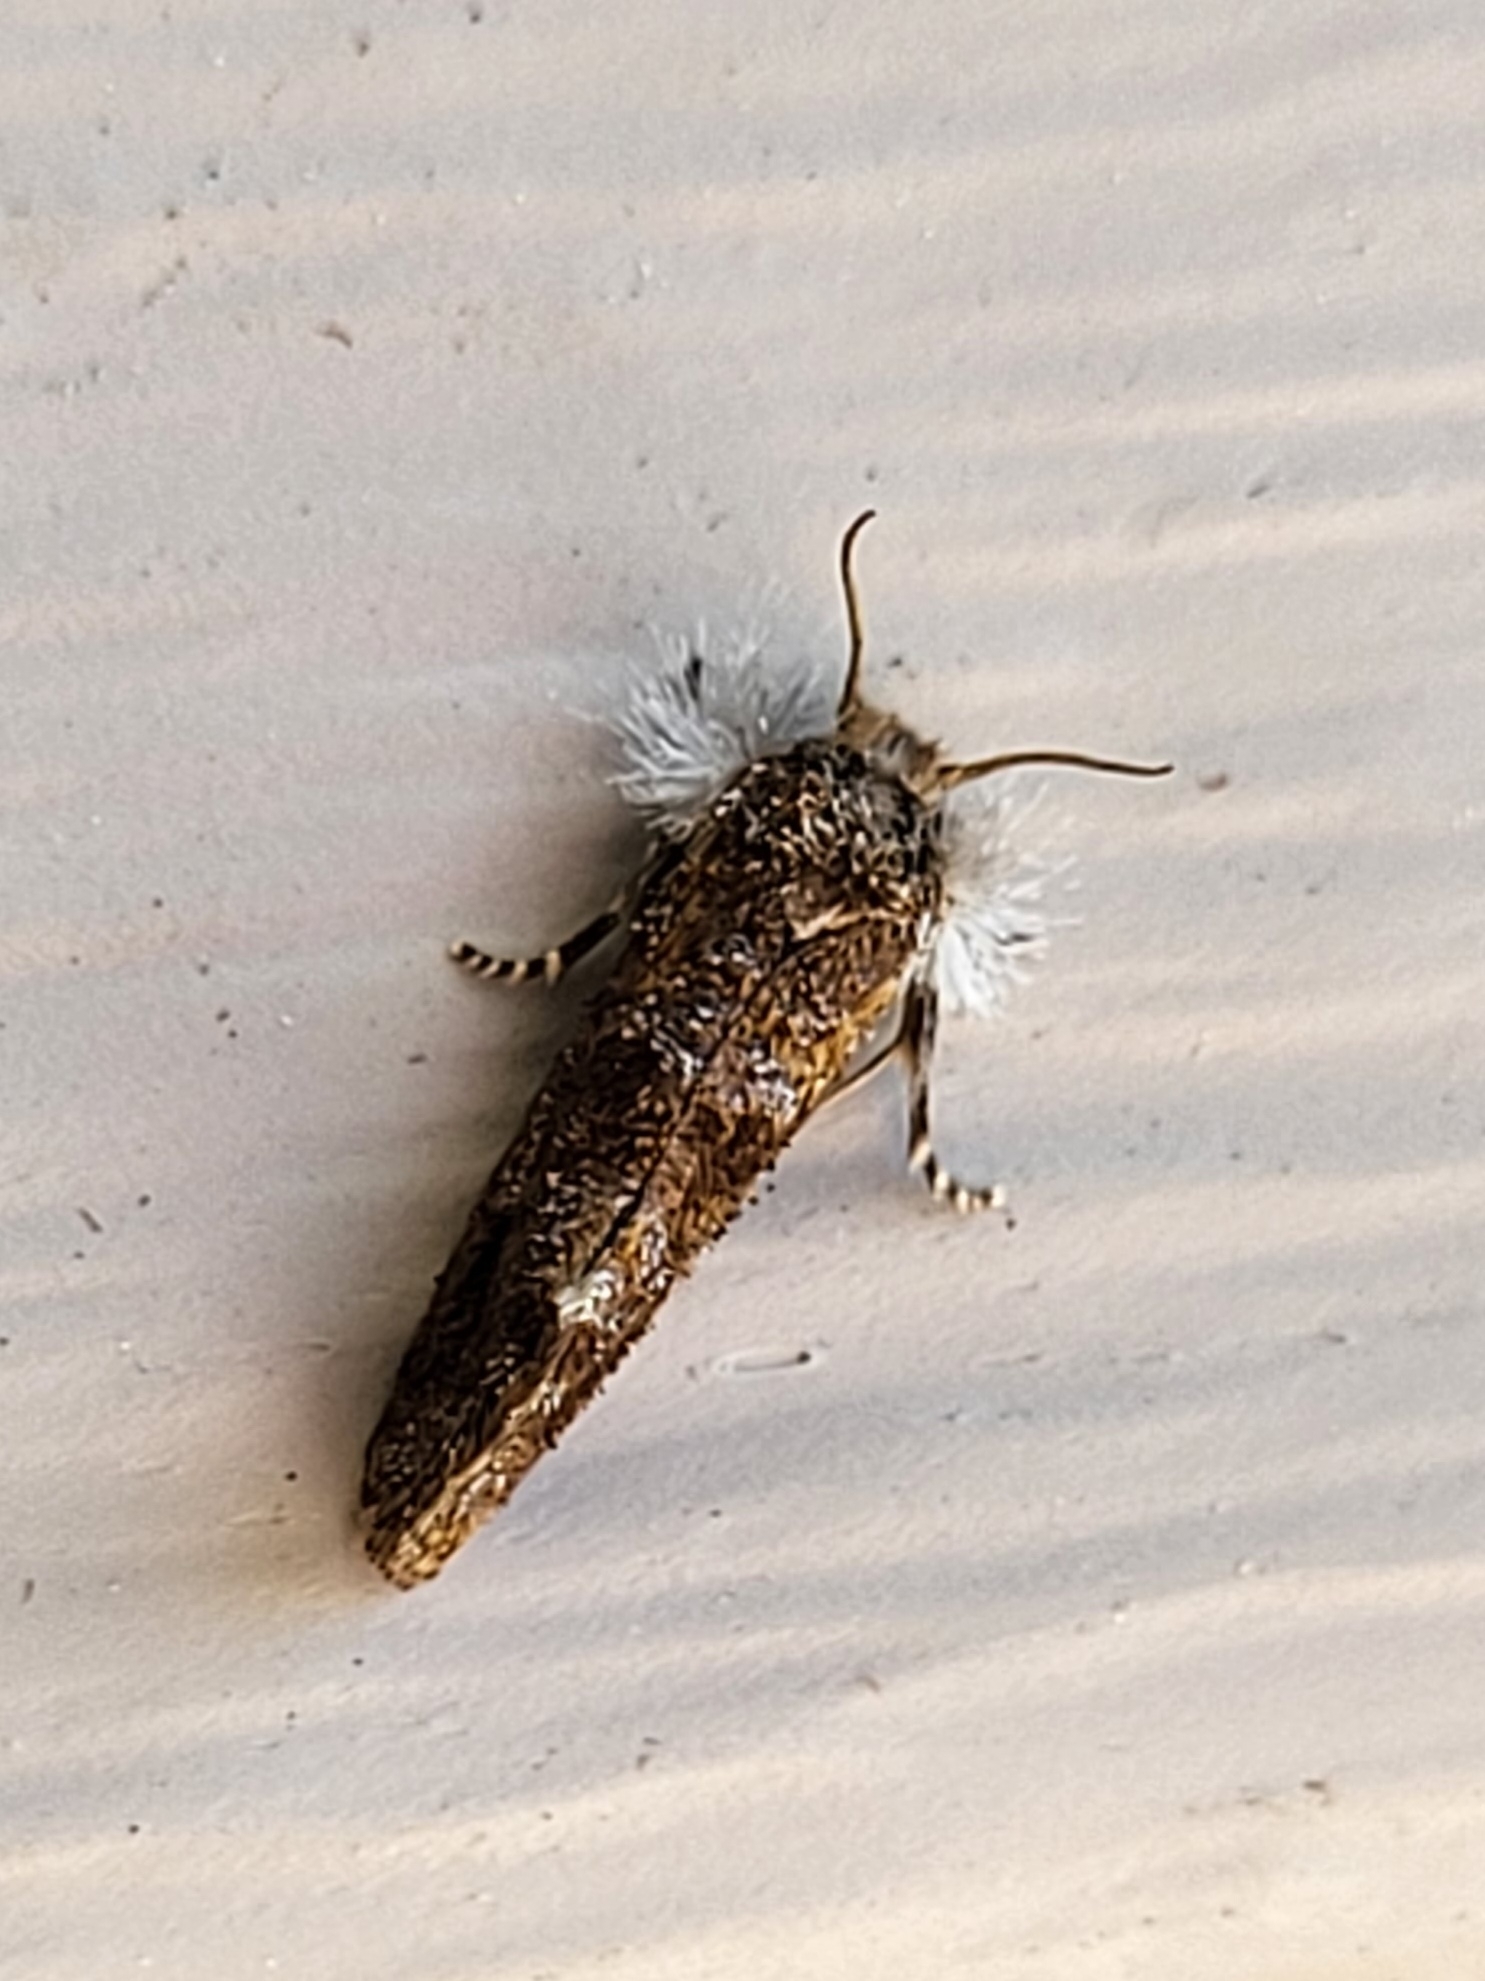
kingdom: Animalia
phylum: Arthropoda
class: Insecta
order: Lepidoptera
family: Tineidae
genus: Acrolophus
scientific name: Acrolophus panamae
